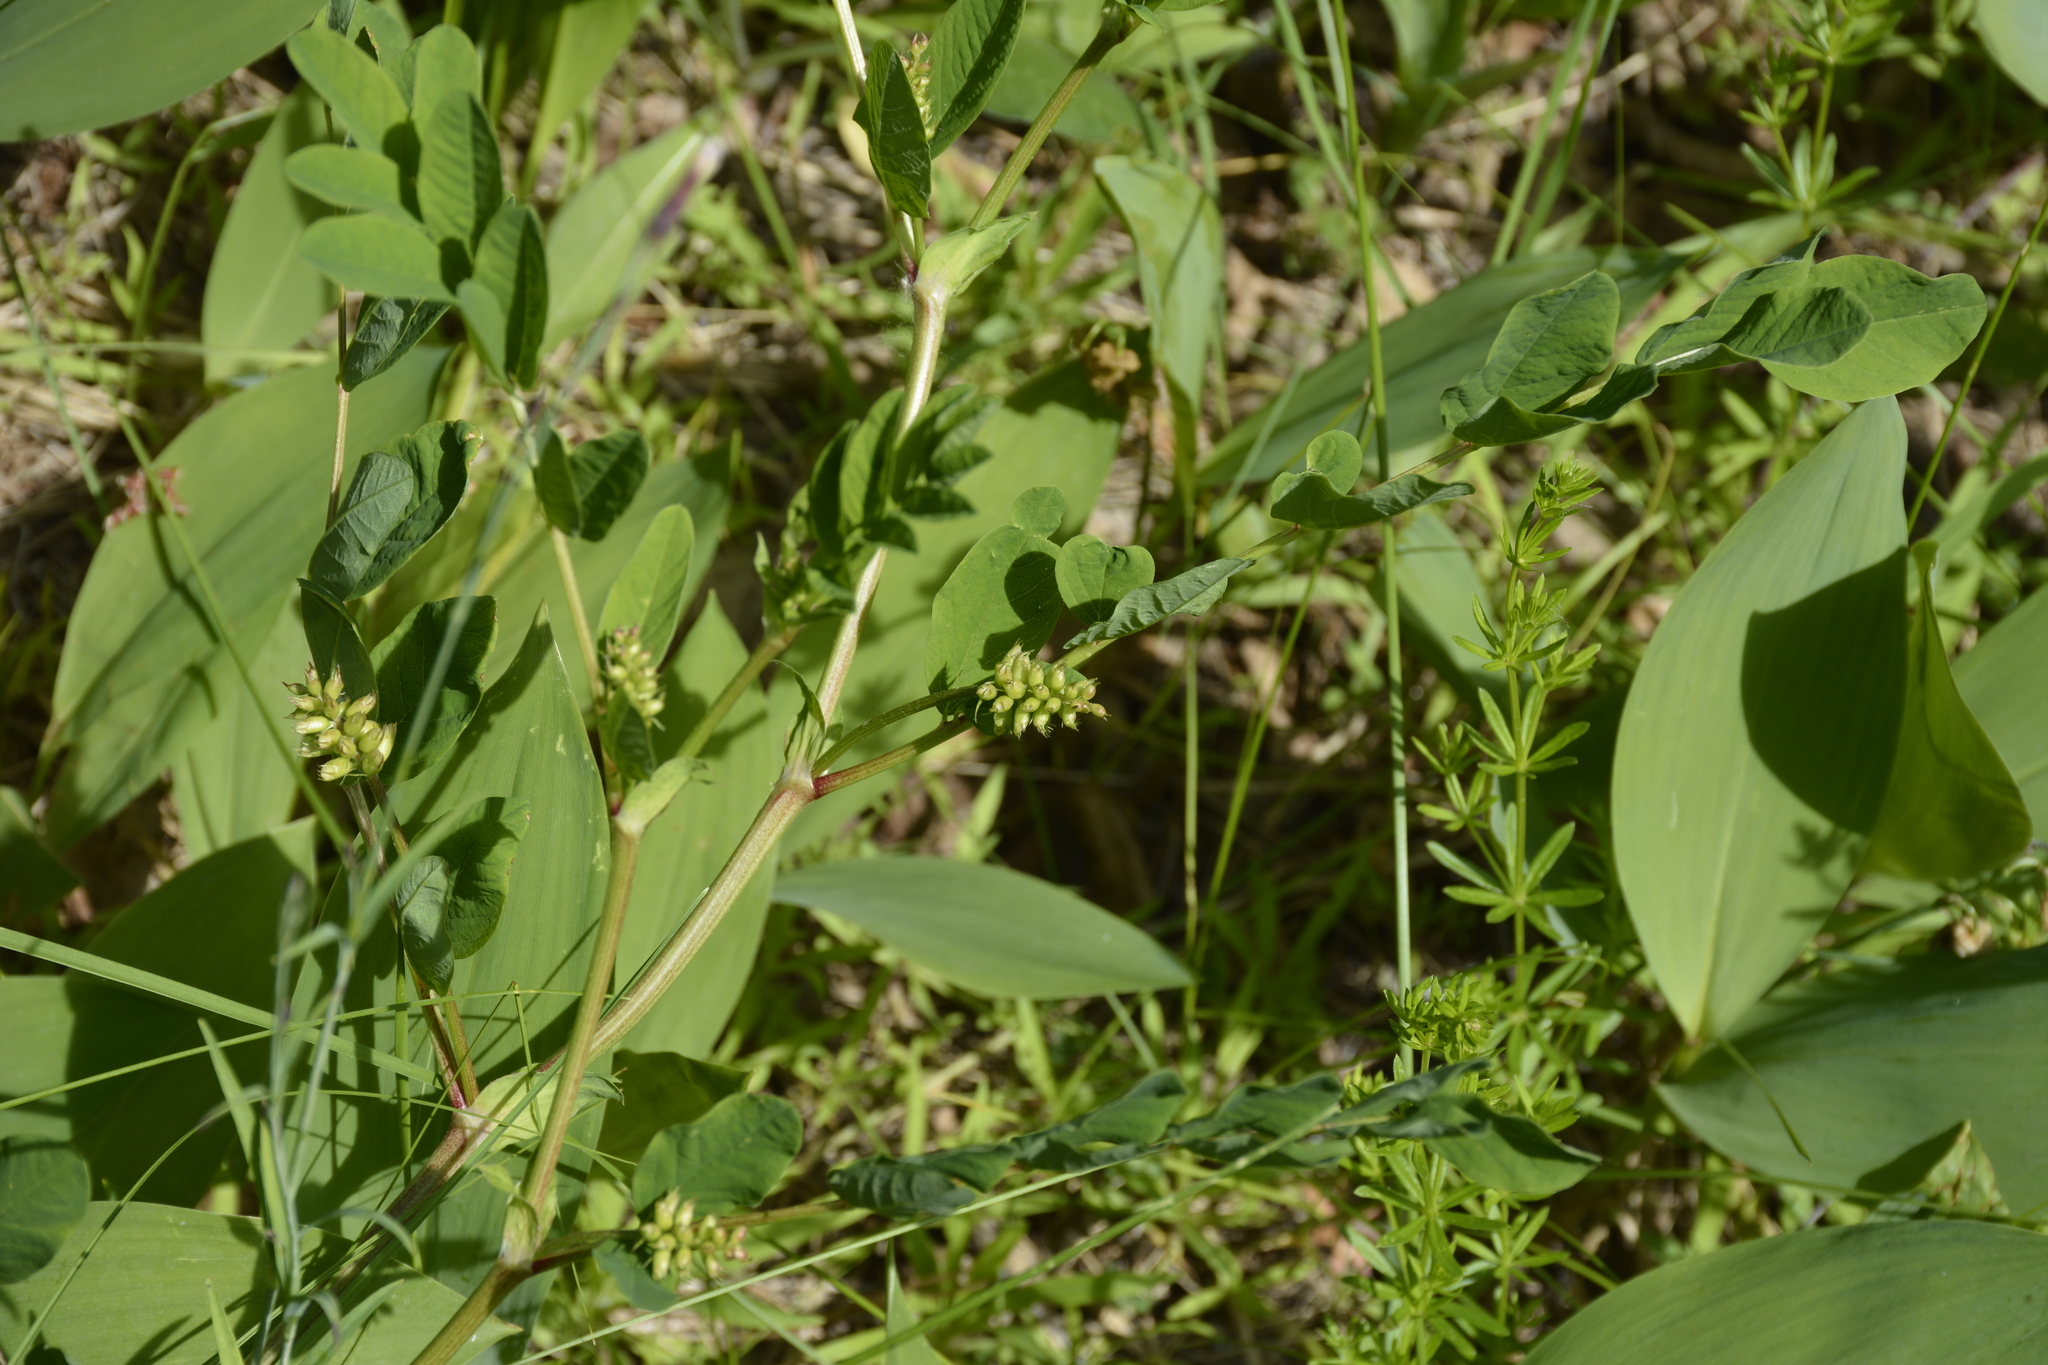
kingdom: Plantae
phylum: Tracheophyta
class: Magnoliopsida
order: Fabales
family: Fabaceae
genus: Astragalus
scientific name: Astragalus glycyphyllos
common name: Wild liquorice
